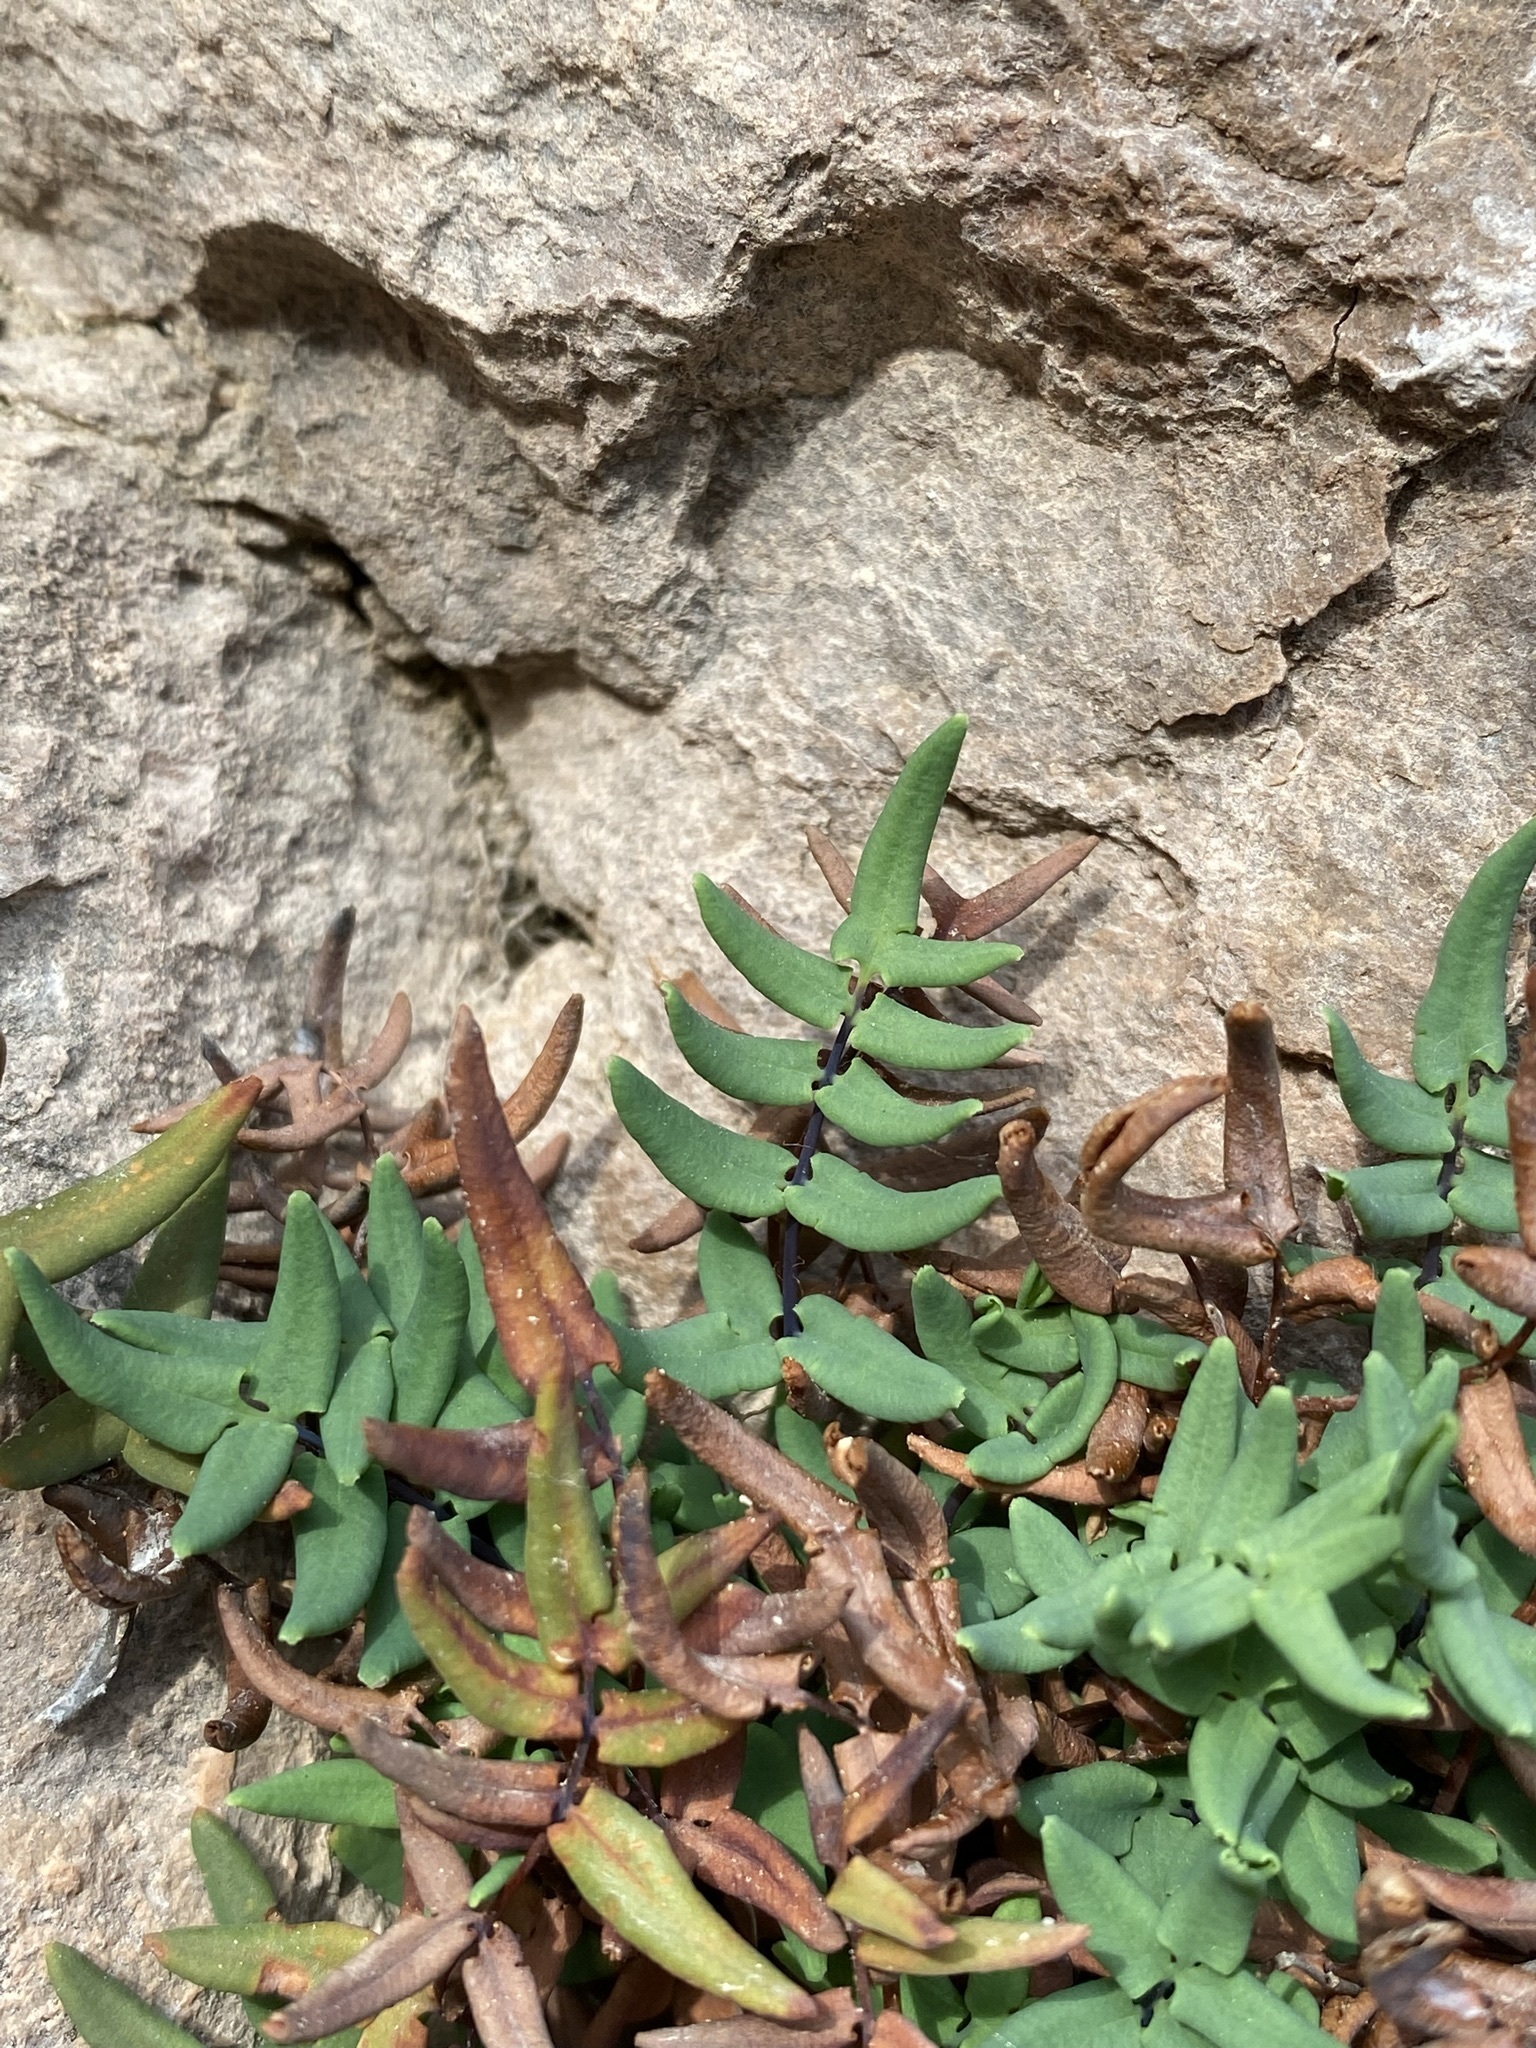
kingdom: Plantae
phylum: Tracheophyta
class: Polypodiopsida
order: Polypodiales
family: Pteridaceae
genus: Pellaea
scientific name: Pellaea glabella
